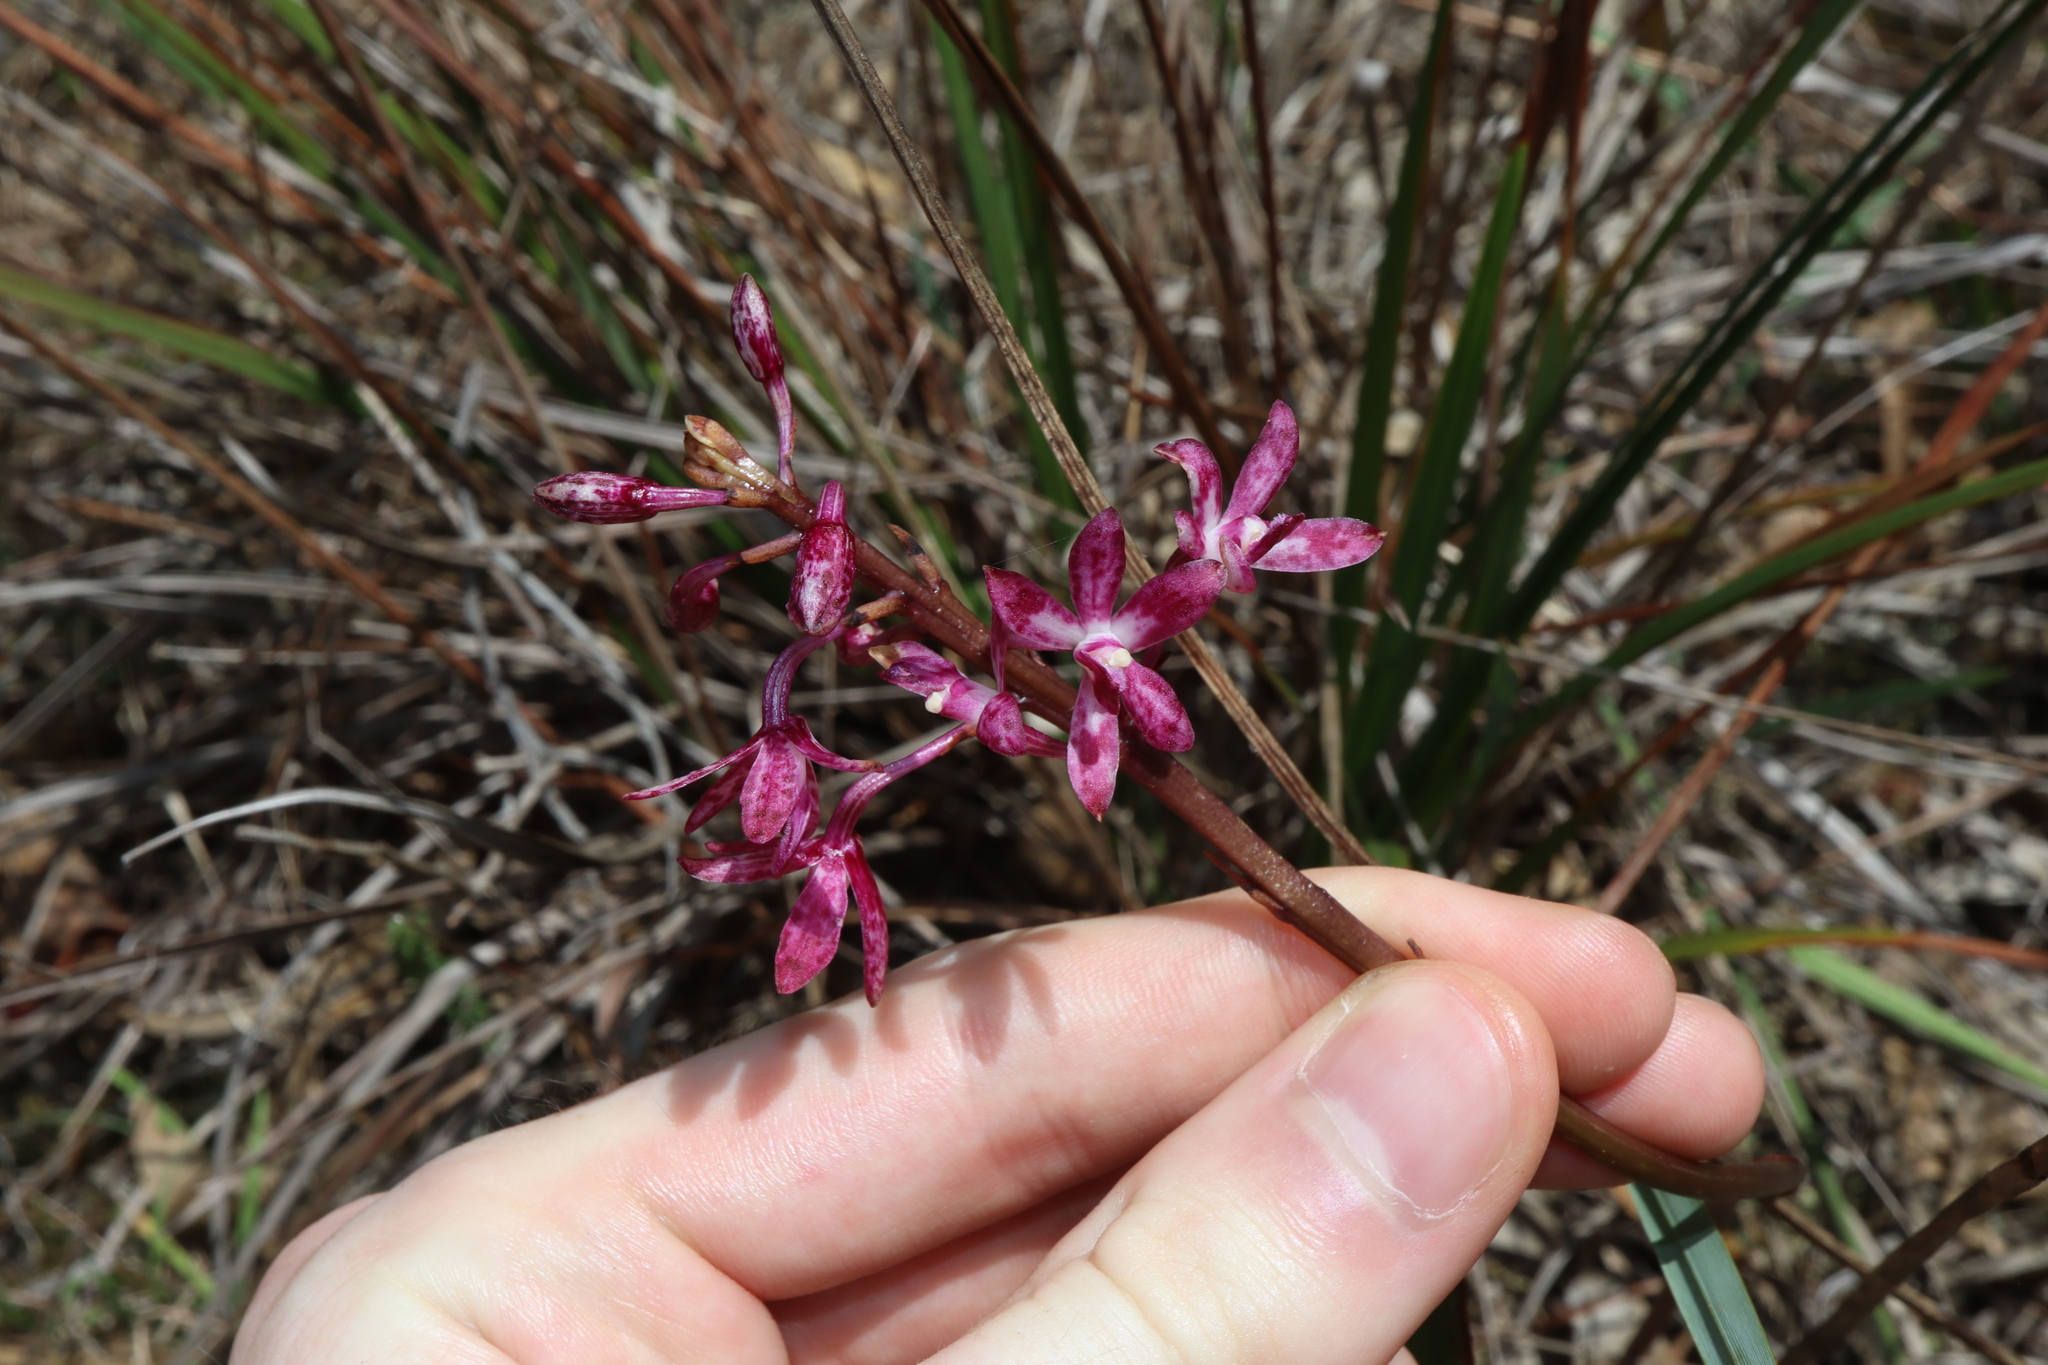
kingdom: Plantae
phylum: Tracheophyta
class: Liliopsida
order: Asparagales
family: Orchidaceae
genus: Dipodium
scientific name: Dipodium squamatum
